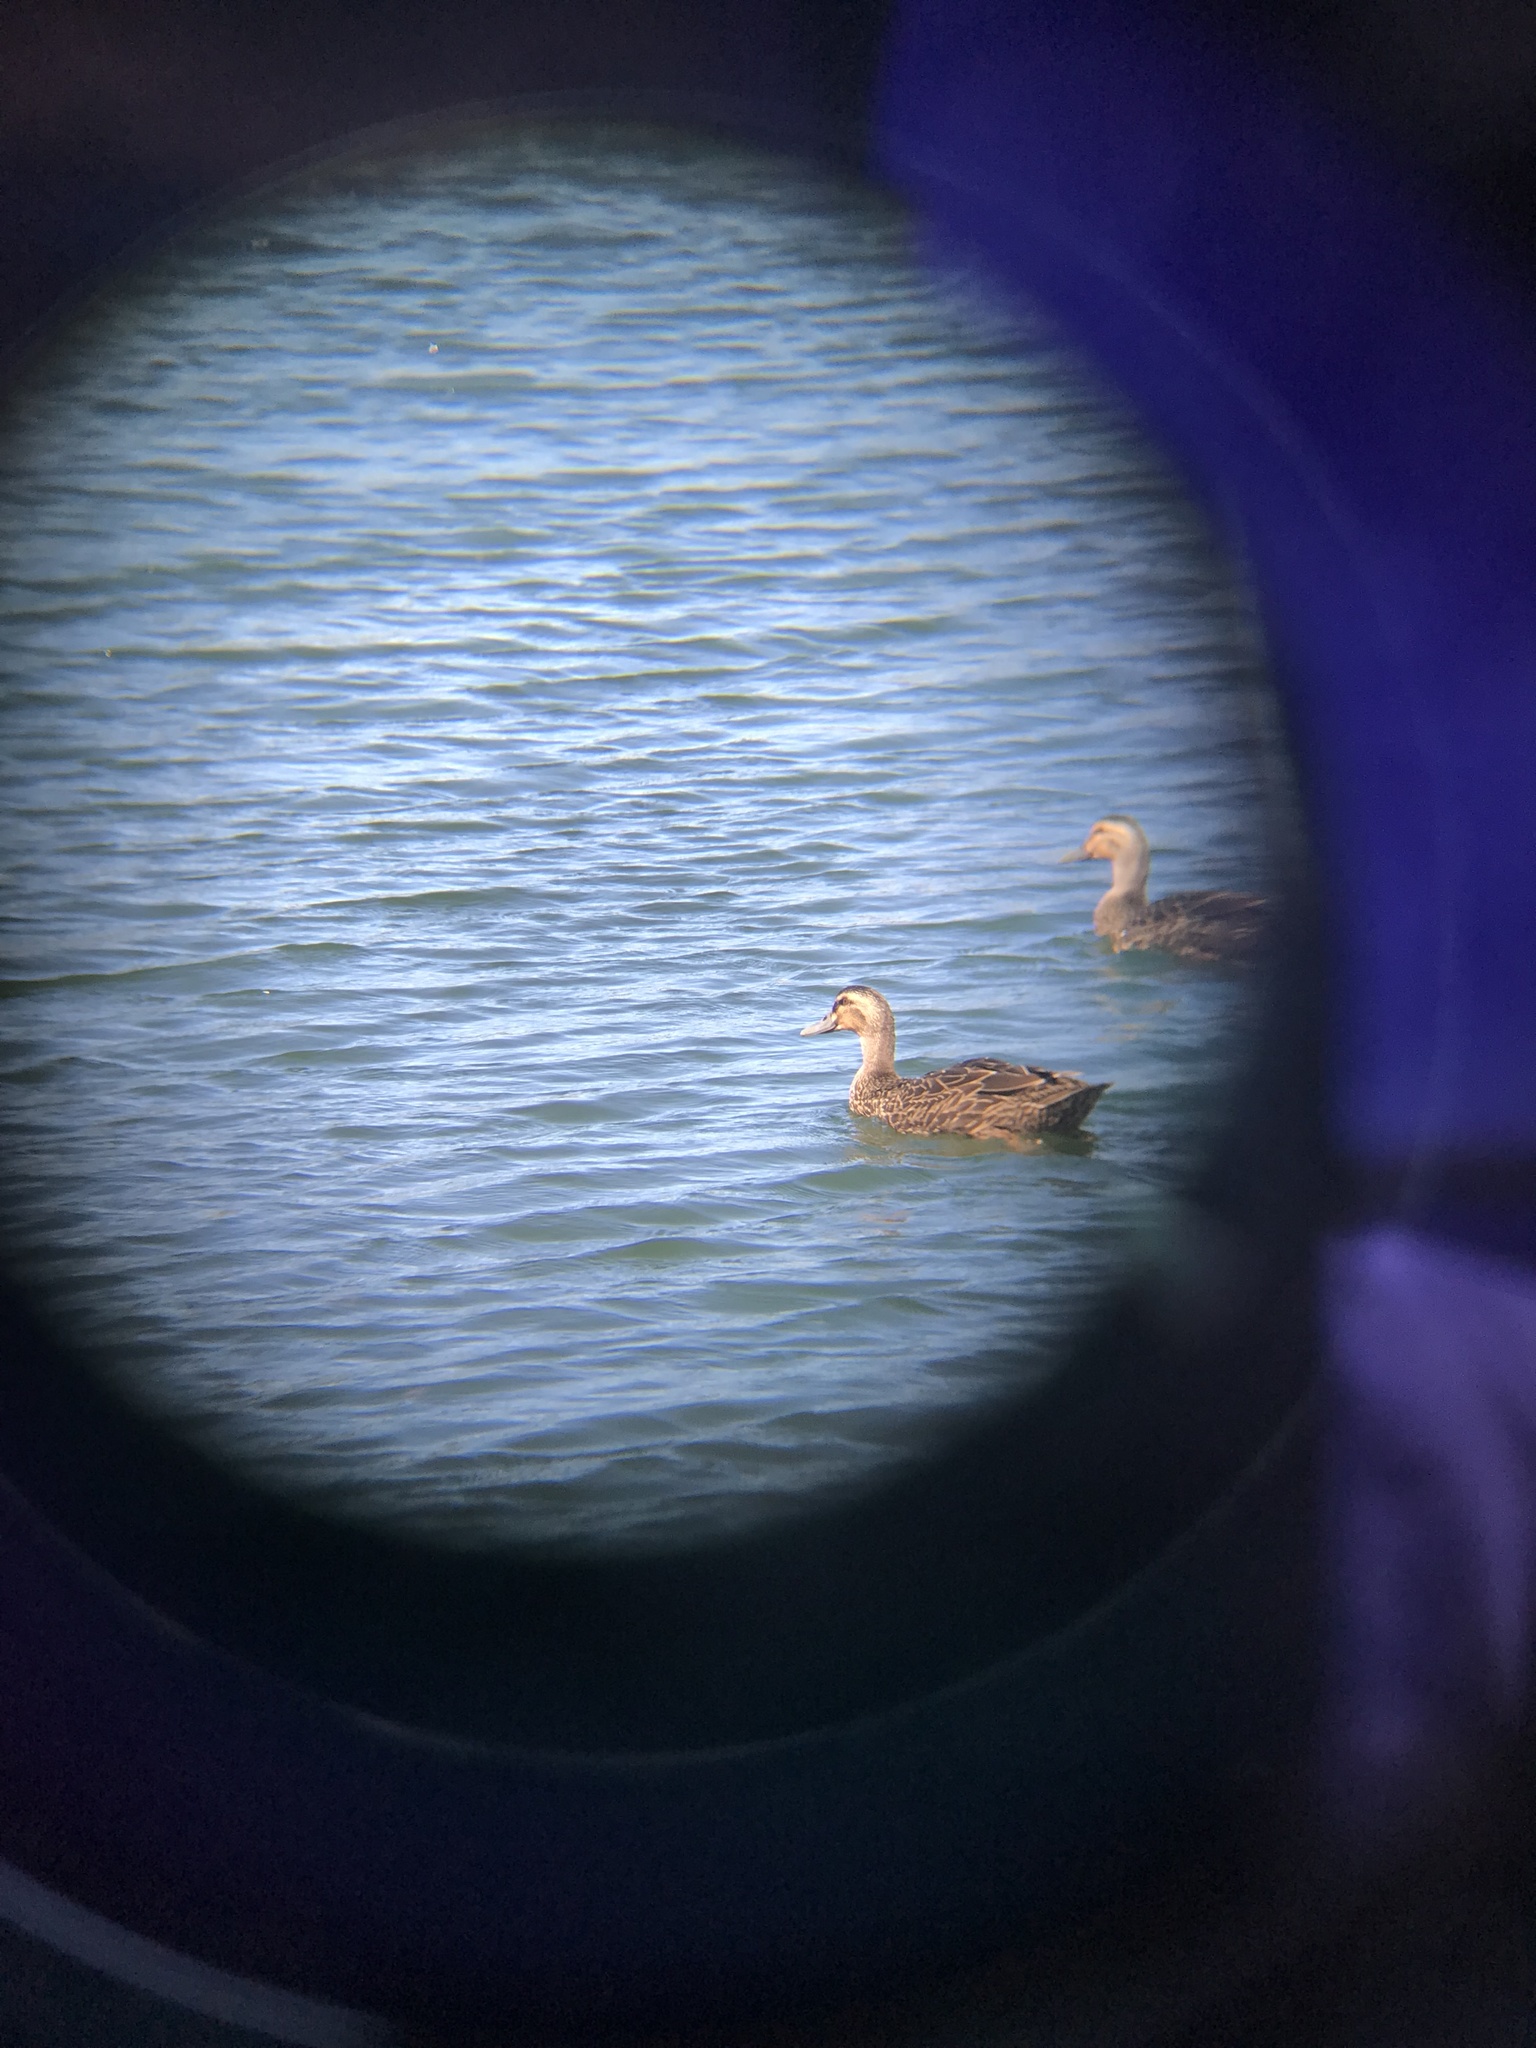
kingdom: Animalia
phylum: Chordata
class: Aves
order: Anseriformes
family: Anatidae
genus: Anas
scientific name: Anas
